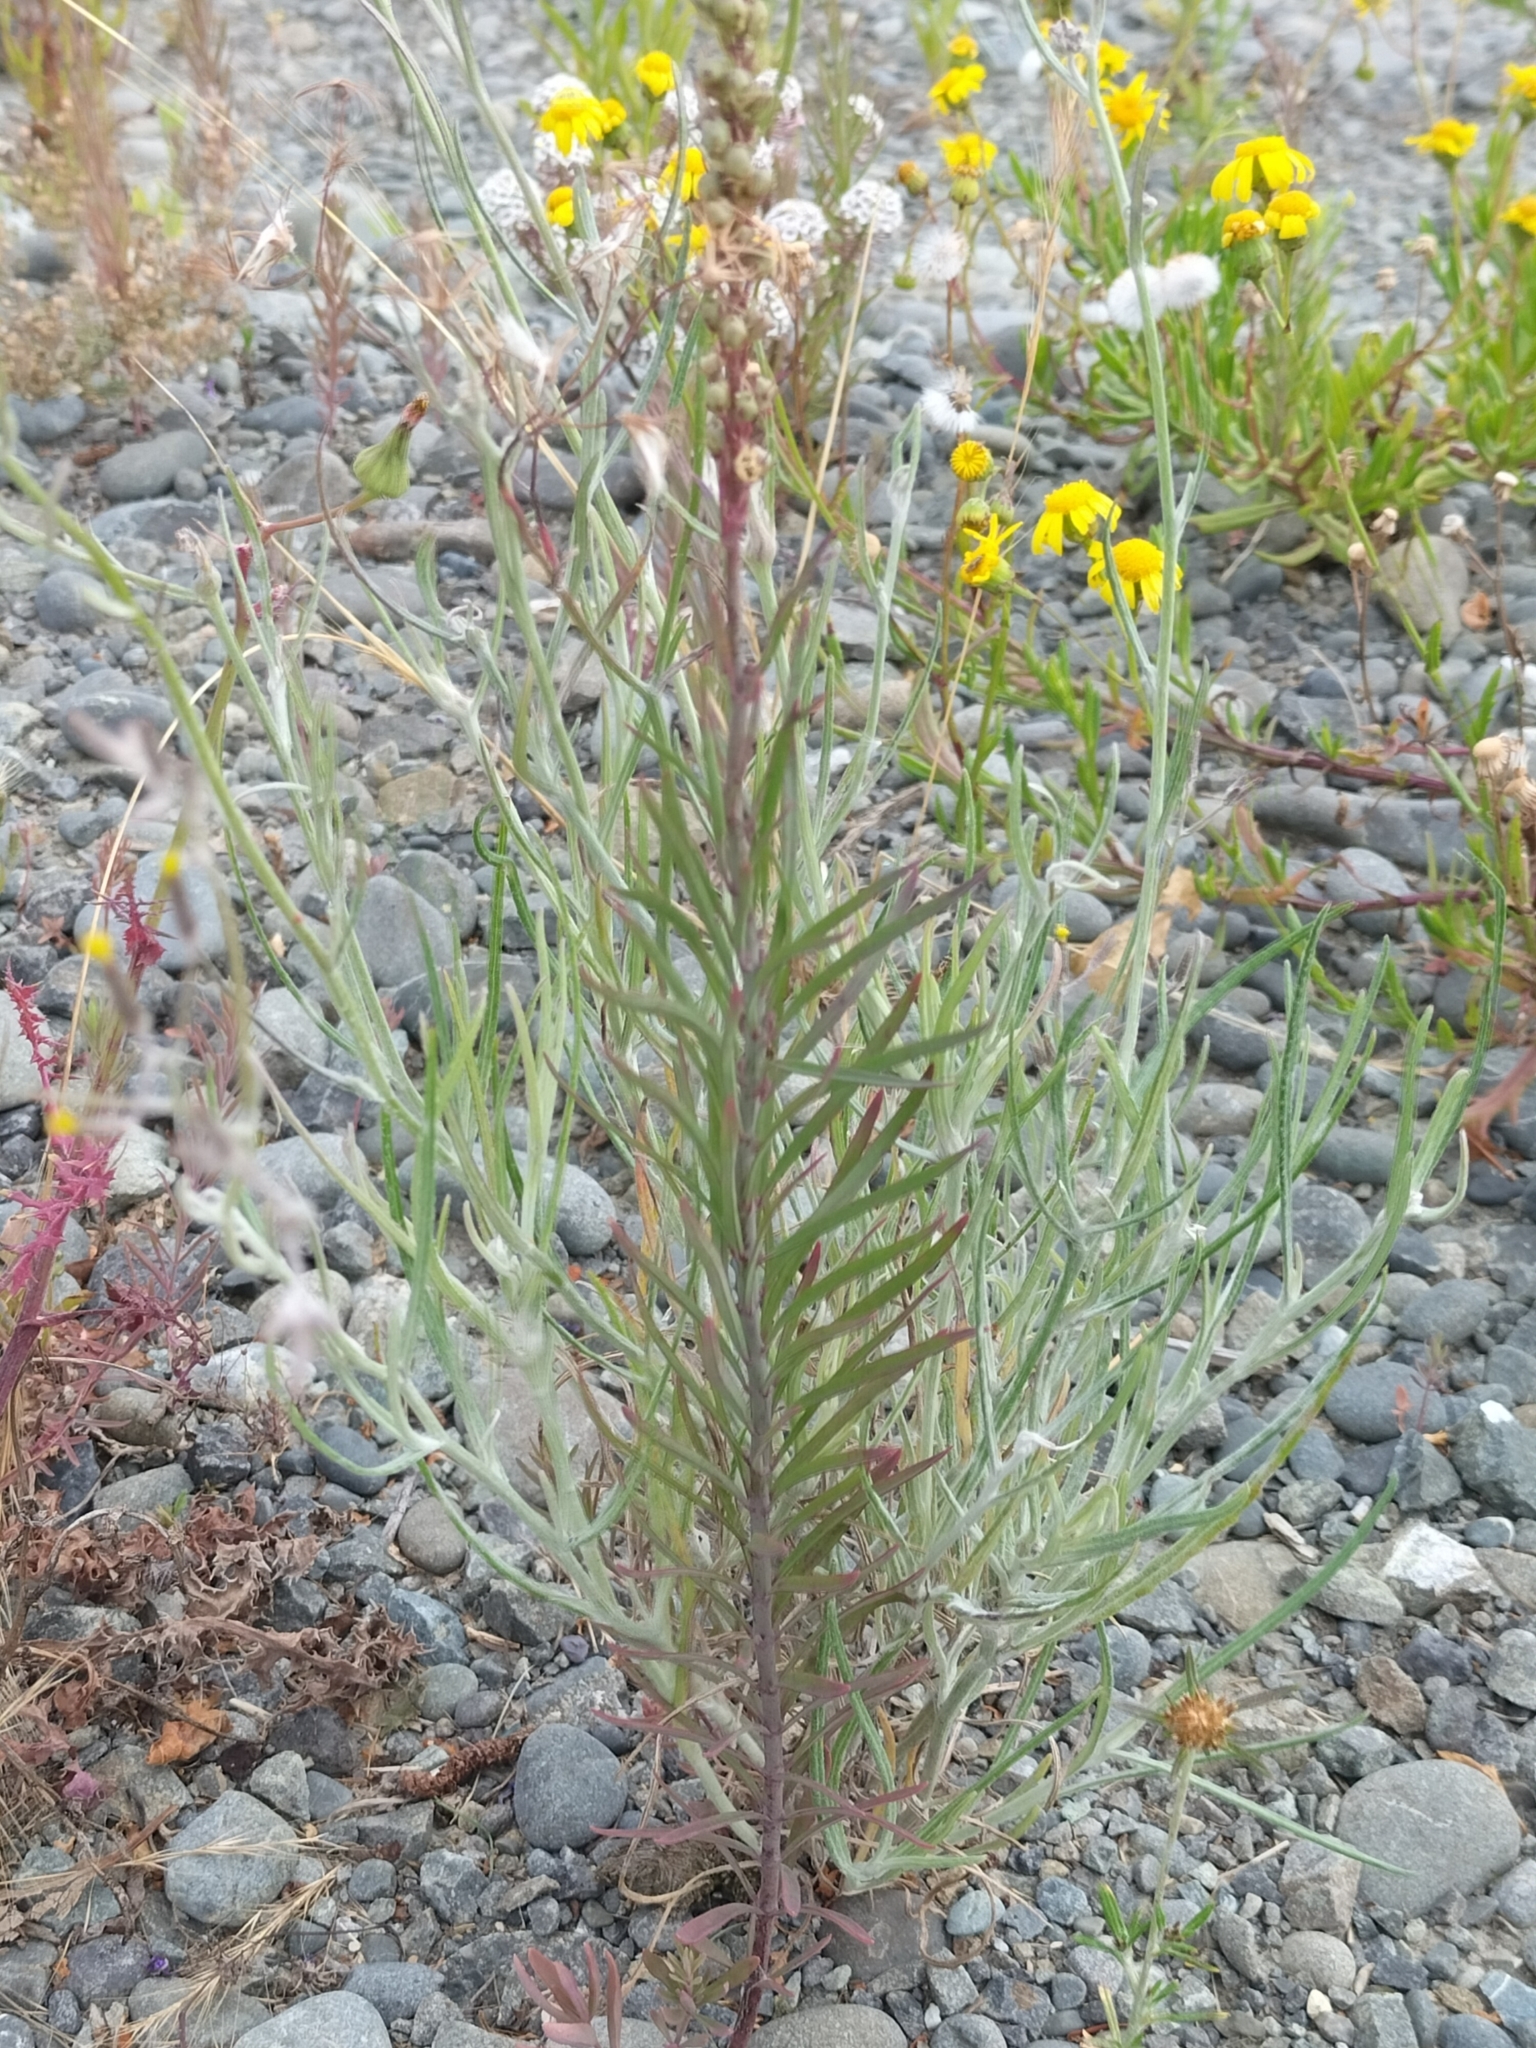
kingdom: Plantae
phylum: Tracheophyta
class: Magnoliopsida
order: Asterales
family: Asteraceae
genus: Senecio
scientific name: Senecio quadridentatus
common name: Cotton fireweed
